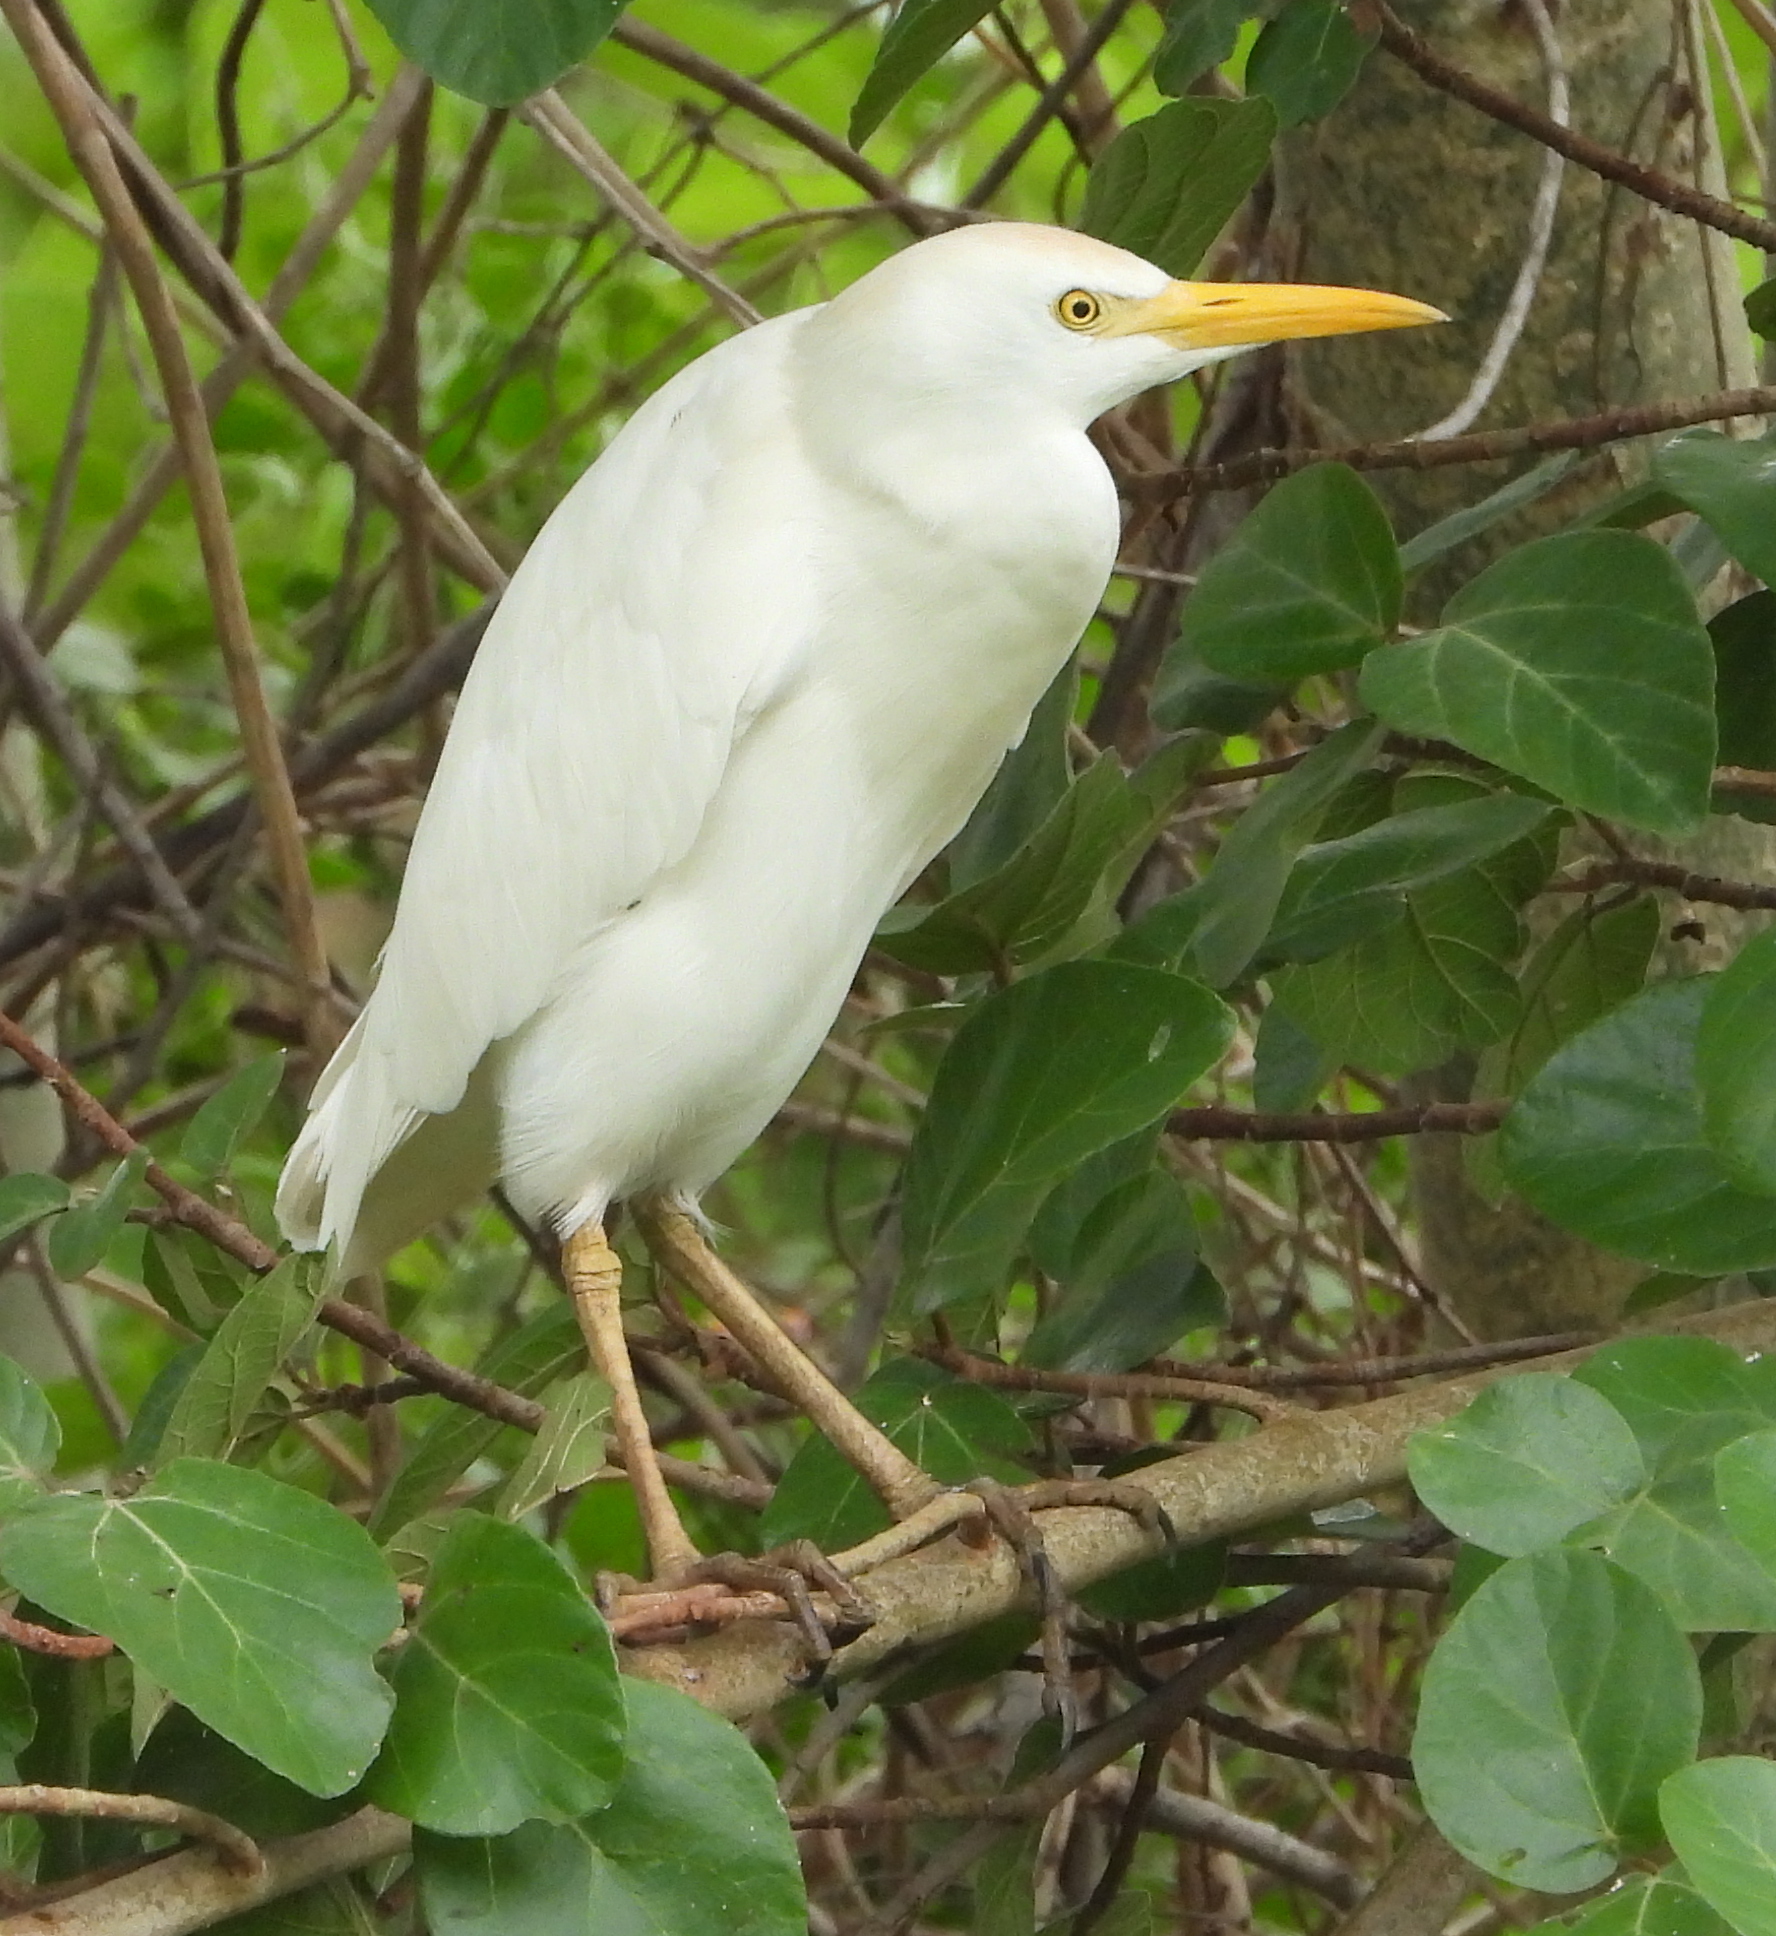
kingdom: Animalia
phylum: Chordata
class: Aves
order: Pelecaniformes
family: Ardeidae
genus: Bubulcus
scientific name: Bubulcus ibis
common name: Cattle egret
